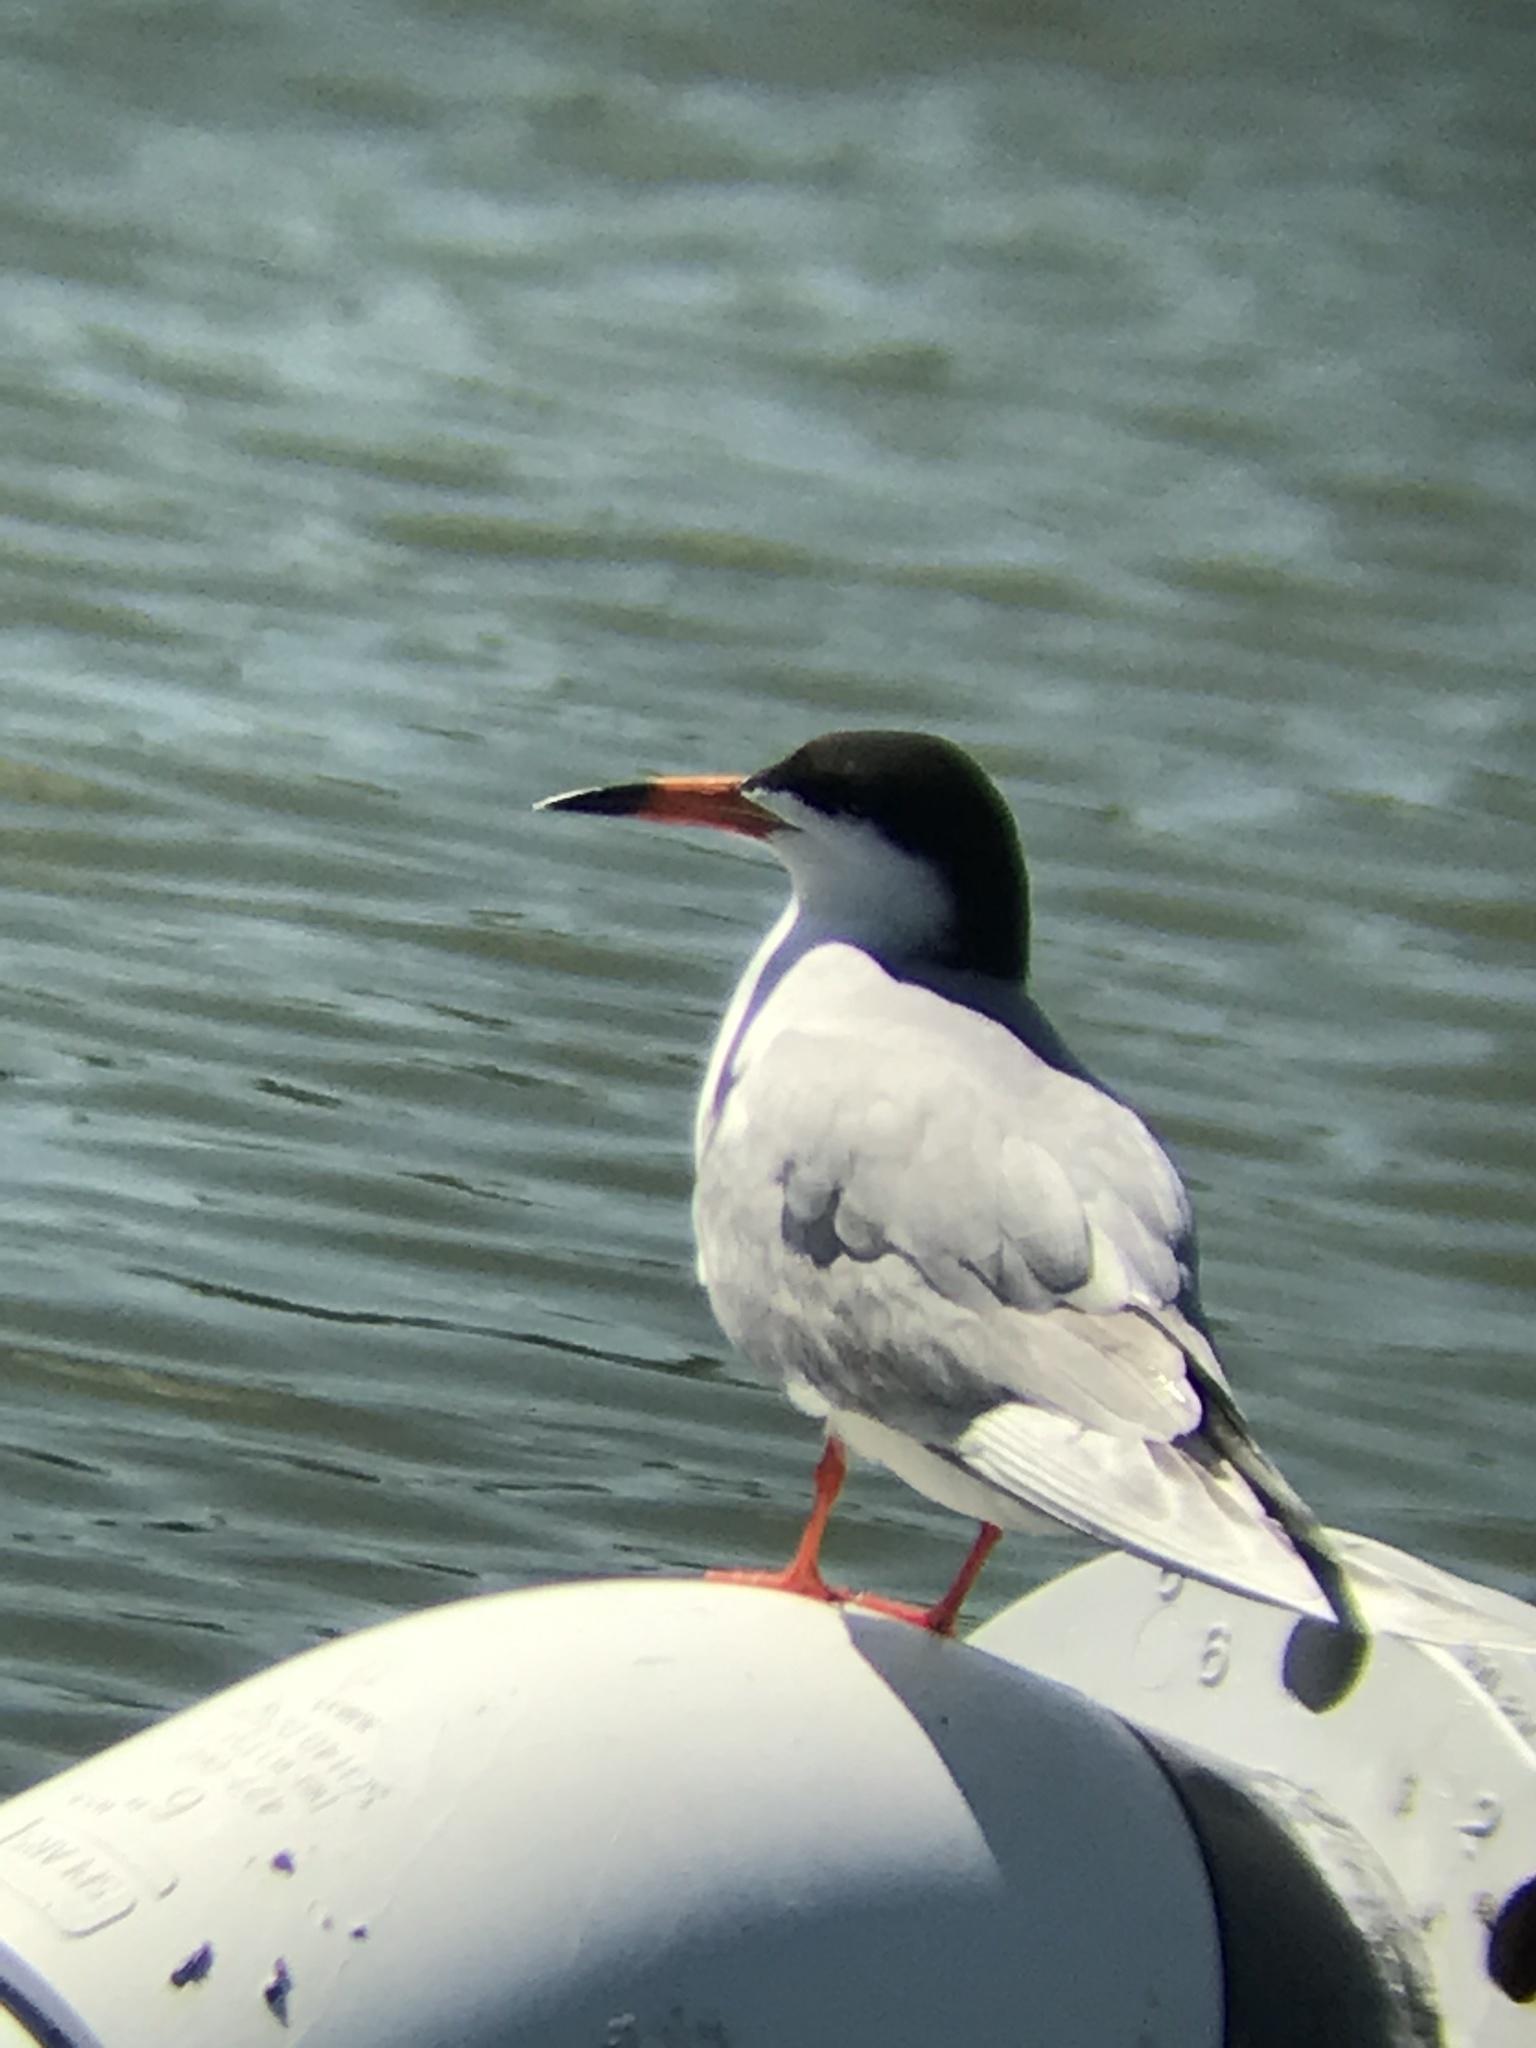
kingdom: Animalia
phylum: Chordata
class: Aves
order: Charadriiformes
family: Laridae
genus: Sterna
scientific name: Sterna forsteri
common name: Forster's tern
